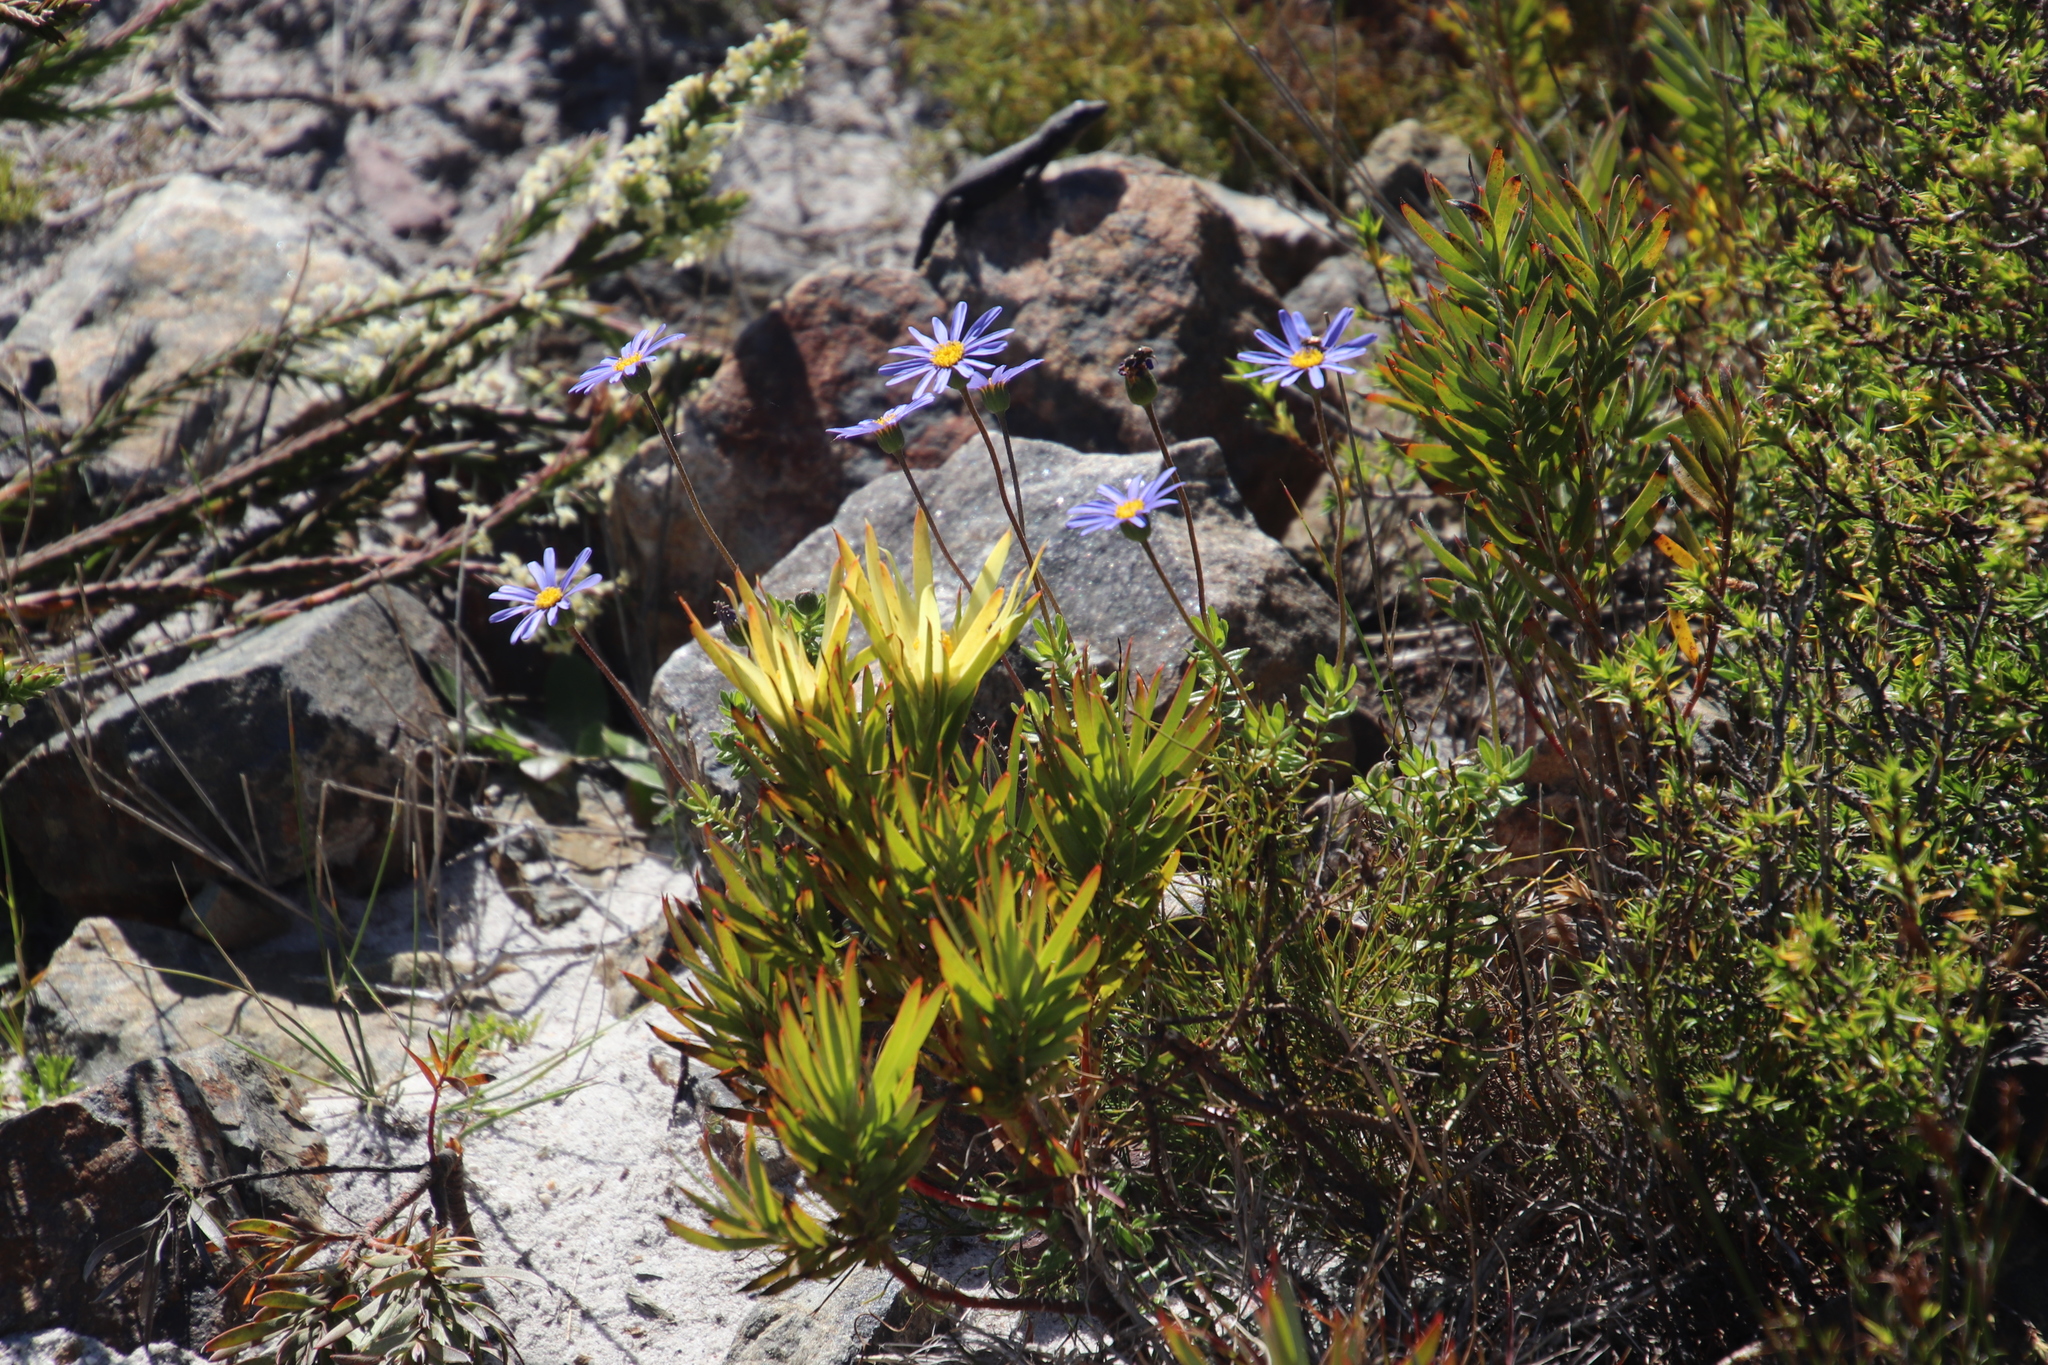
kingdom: Plantae
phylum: Tracheophyta
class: Magnoliopsida
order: Asterales
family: Asteraceae
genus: Felicia
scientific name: Felicia aethiopica
